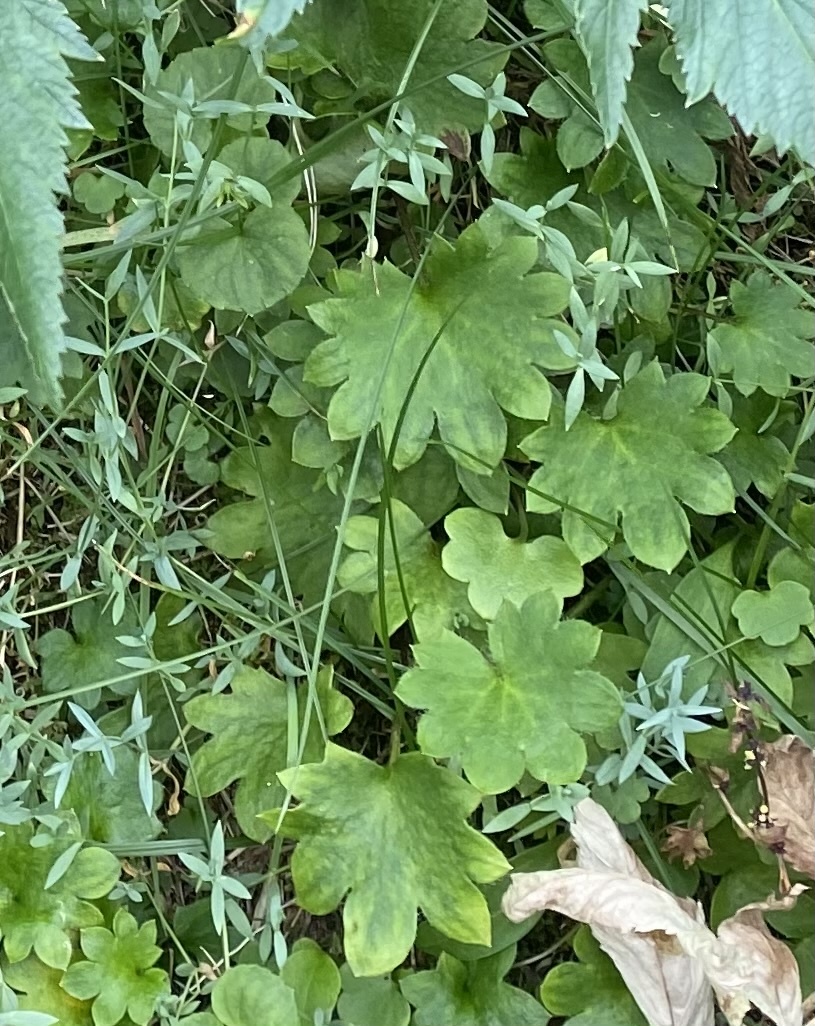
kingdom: Plantae
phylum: Tracheophyta
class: Magnoliopsida
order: Saxifragales
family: Saxifragaceae
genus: Micranthes
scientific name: Micranthes nelsoniana
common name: Nelson's saxifrage
